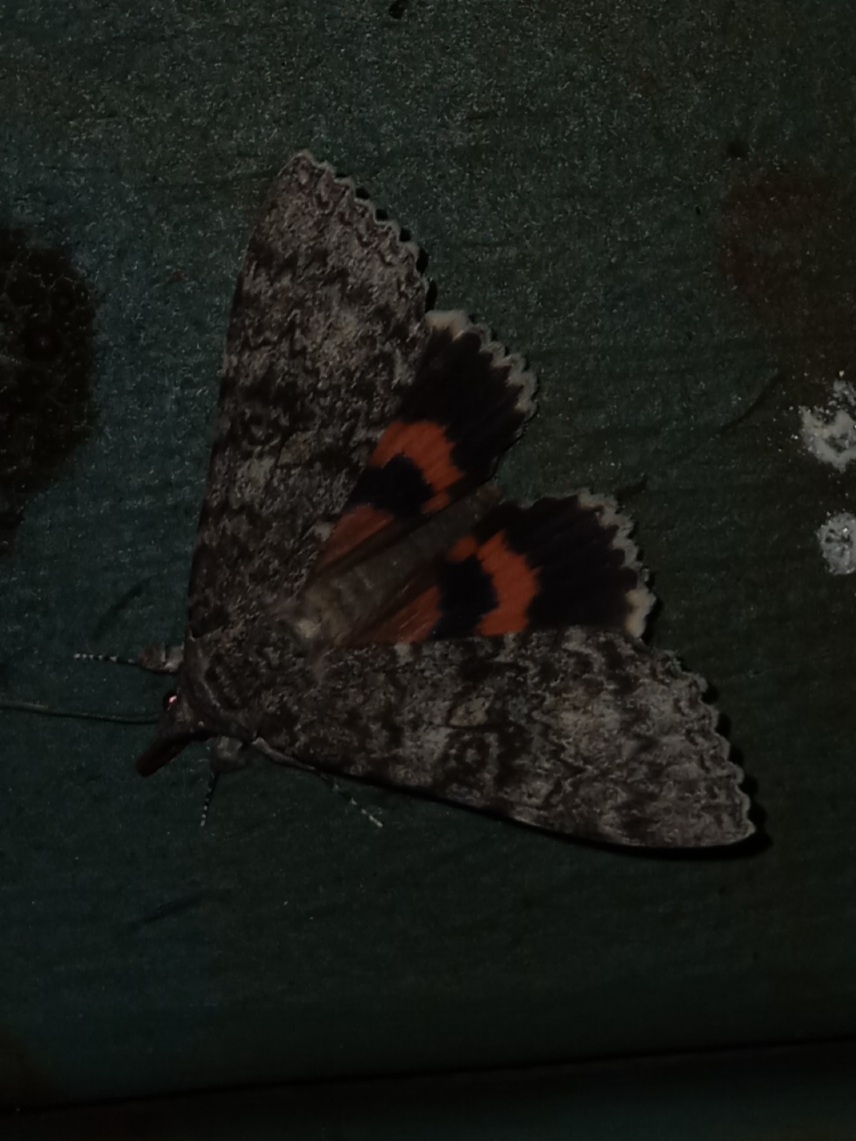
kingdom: Animalia
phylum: Arthropoda
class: Insecta
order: Lepidoptera
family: Erebidae
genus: Catocala
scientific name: Catocala unijuga
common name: Once-married underwing
